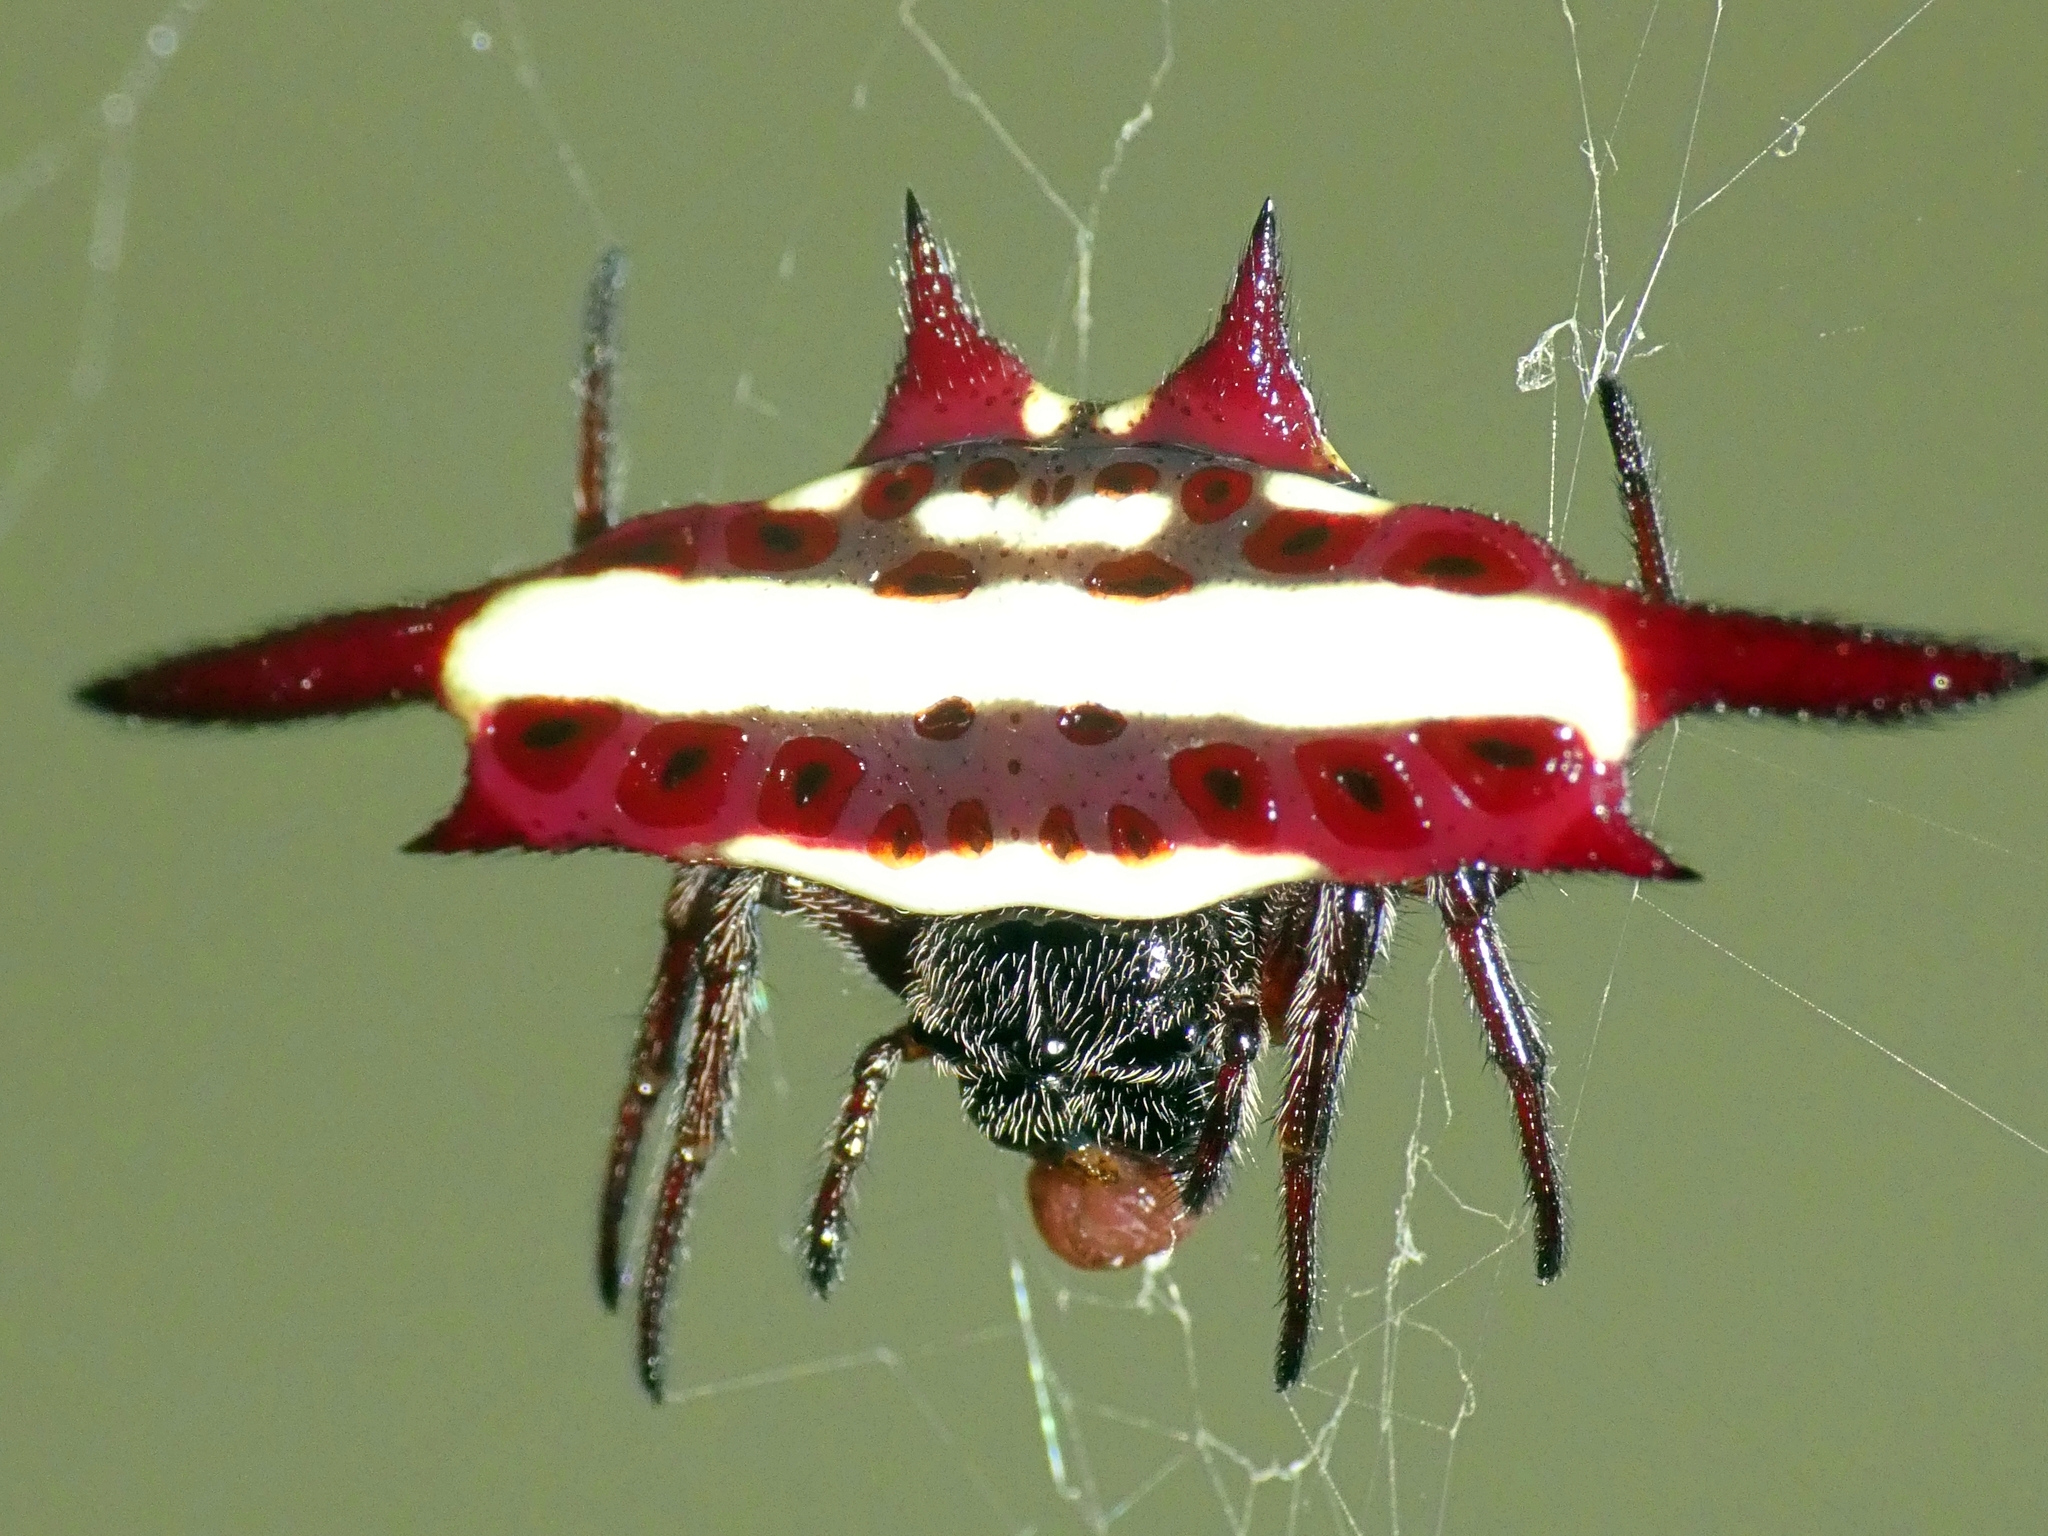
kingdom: Animalia
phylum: Arthropoda
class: Arachnida
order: Araneae
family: Araneidae
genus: Gasteracantha
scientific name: Gasteracantha fornicata
